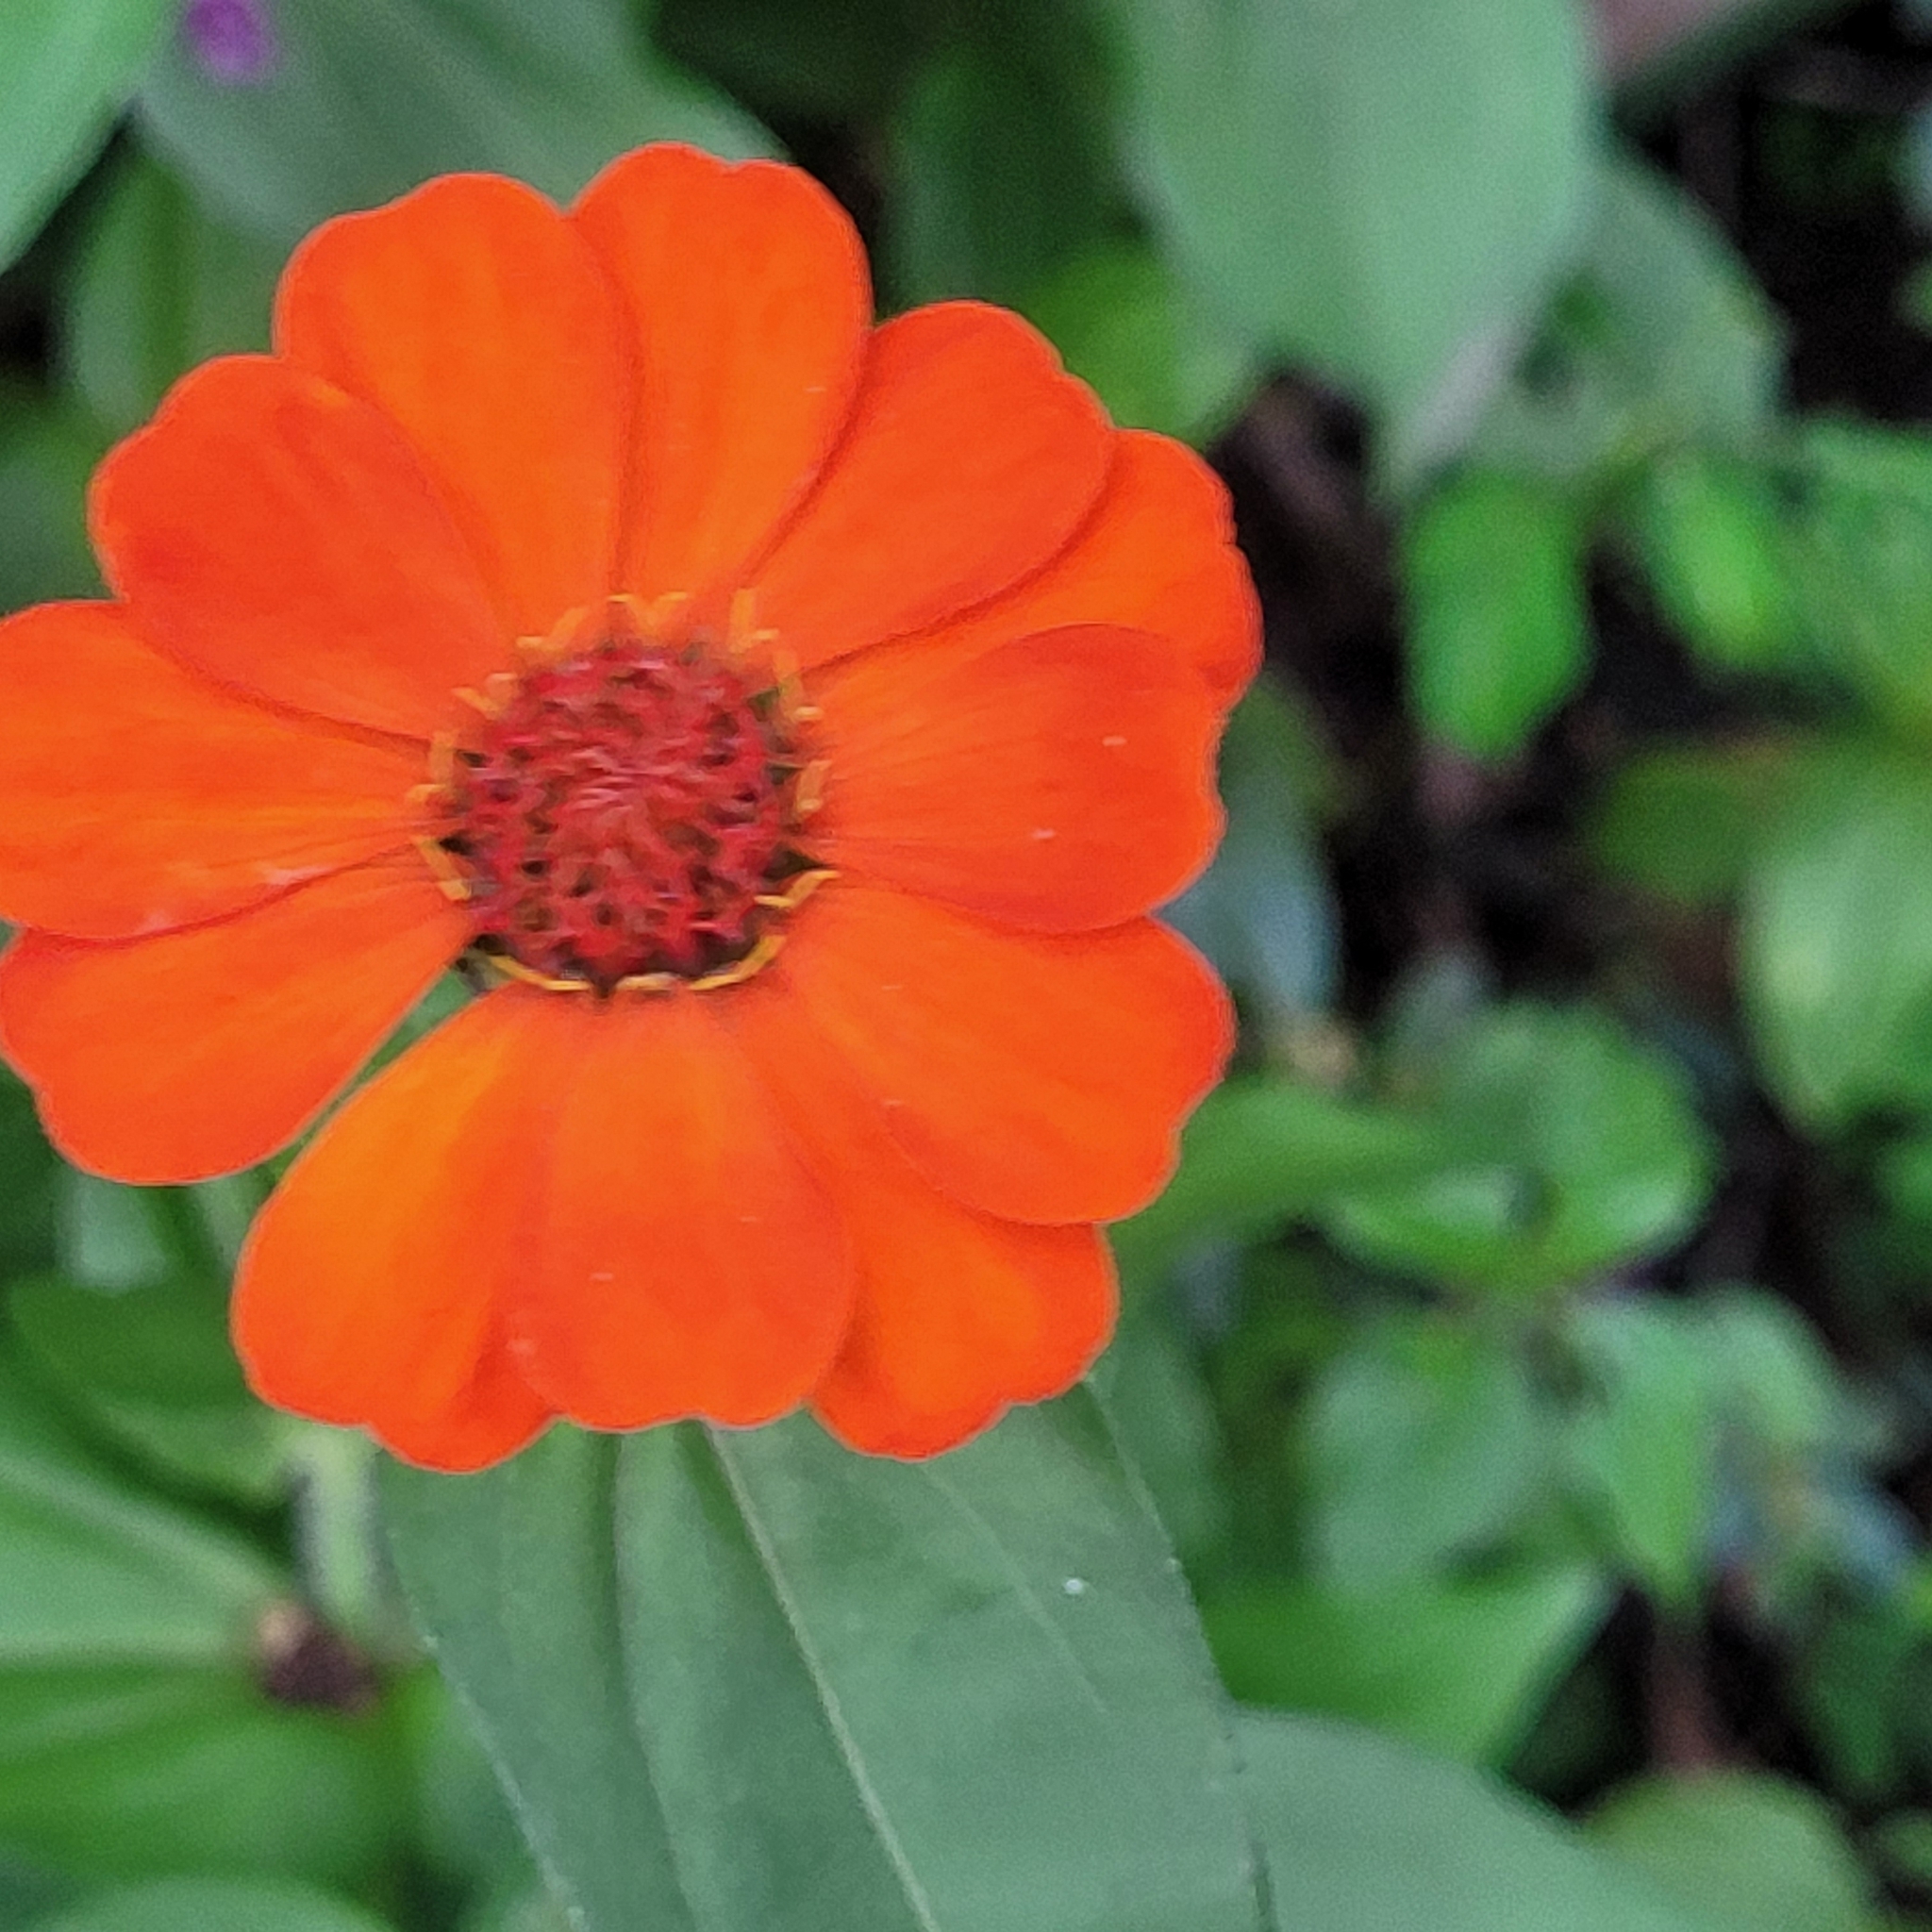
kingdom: Plantae
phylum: Tracheophyta
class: Magnoliopsida
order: Asterales
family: Asteraceae
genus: Zinnia
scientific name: Zinnia elegans
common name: Youth-and-age
